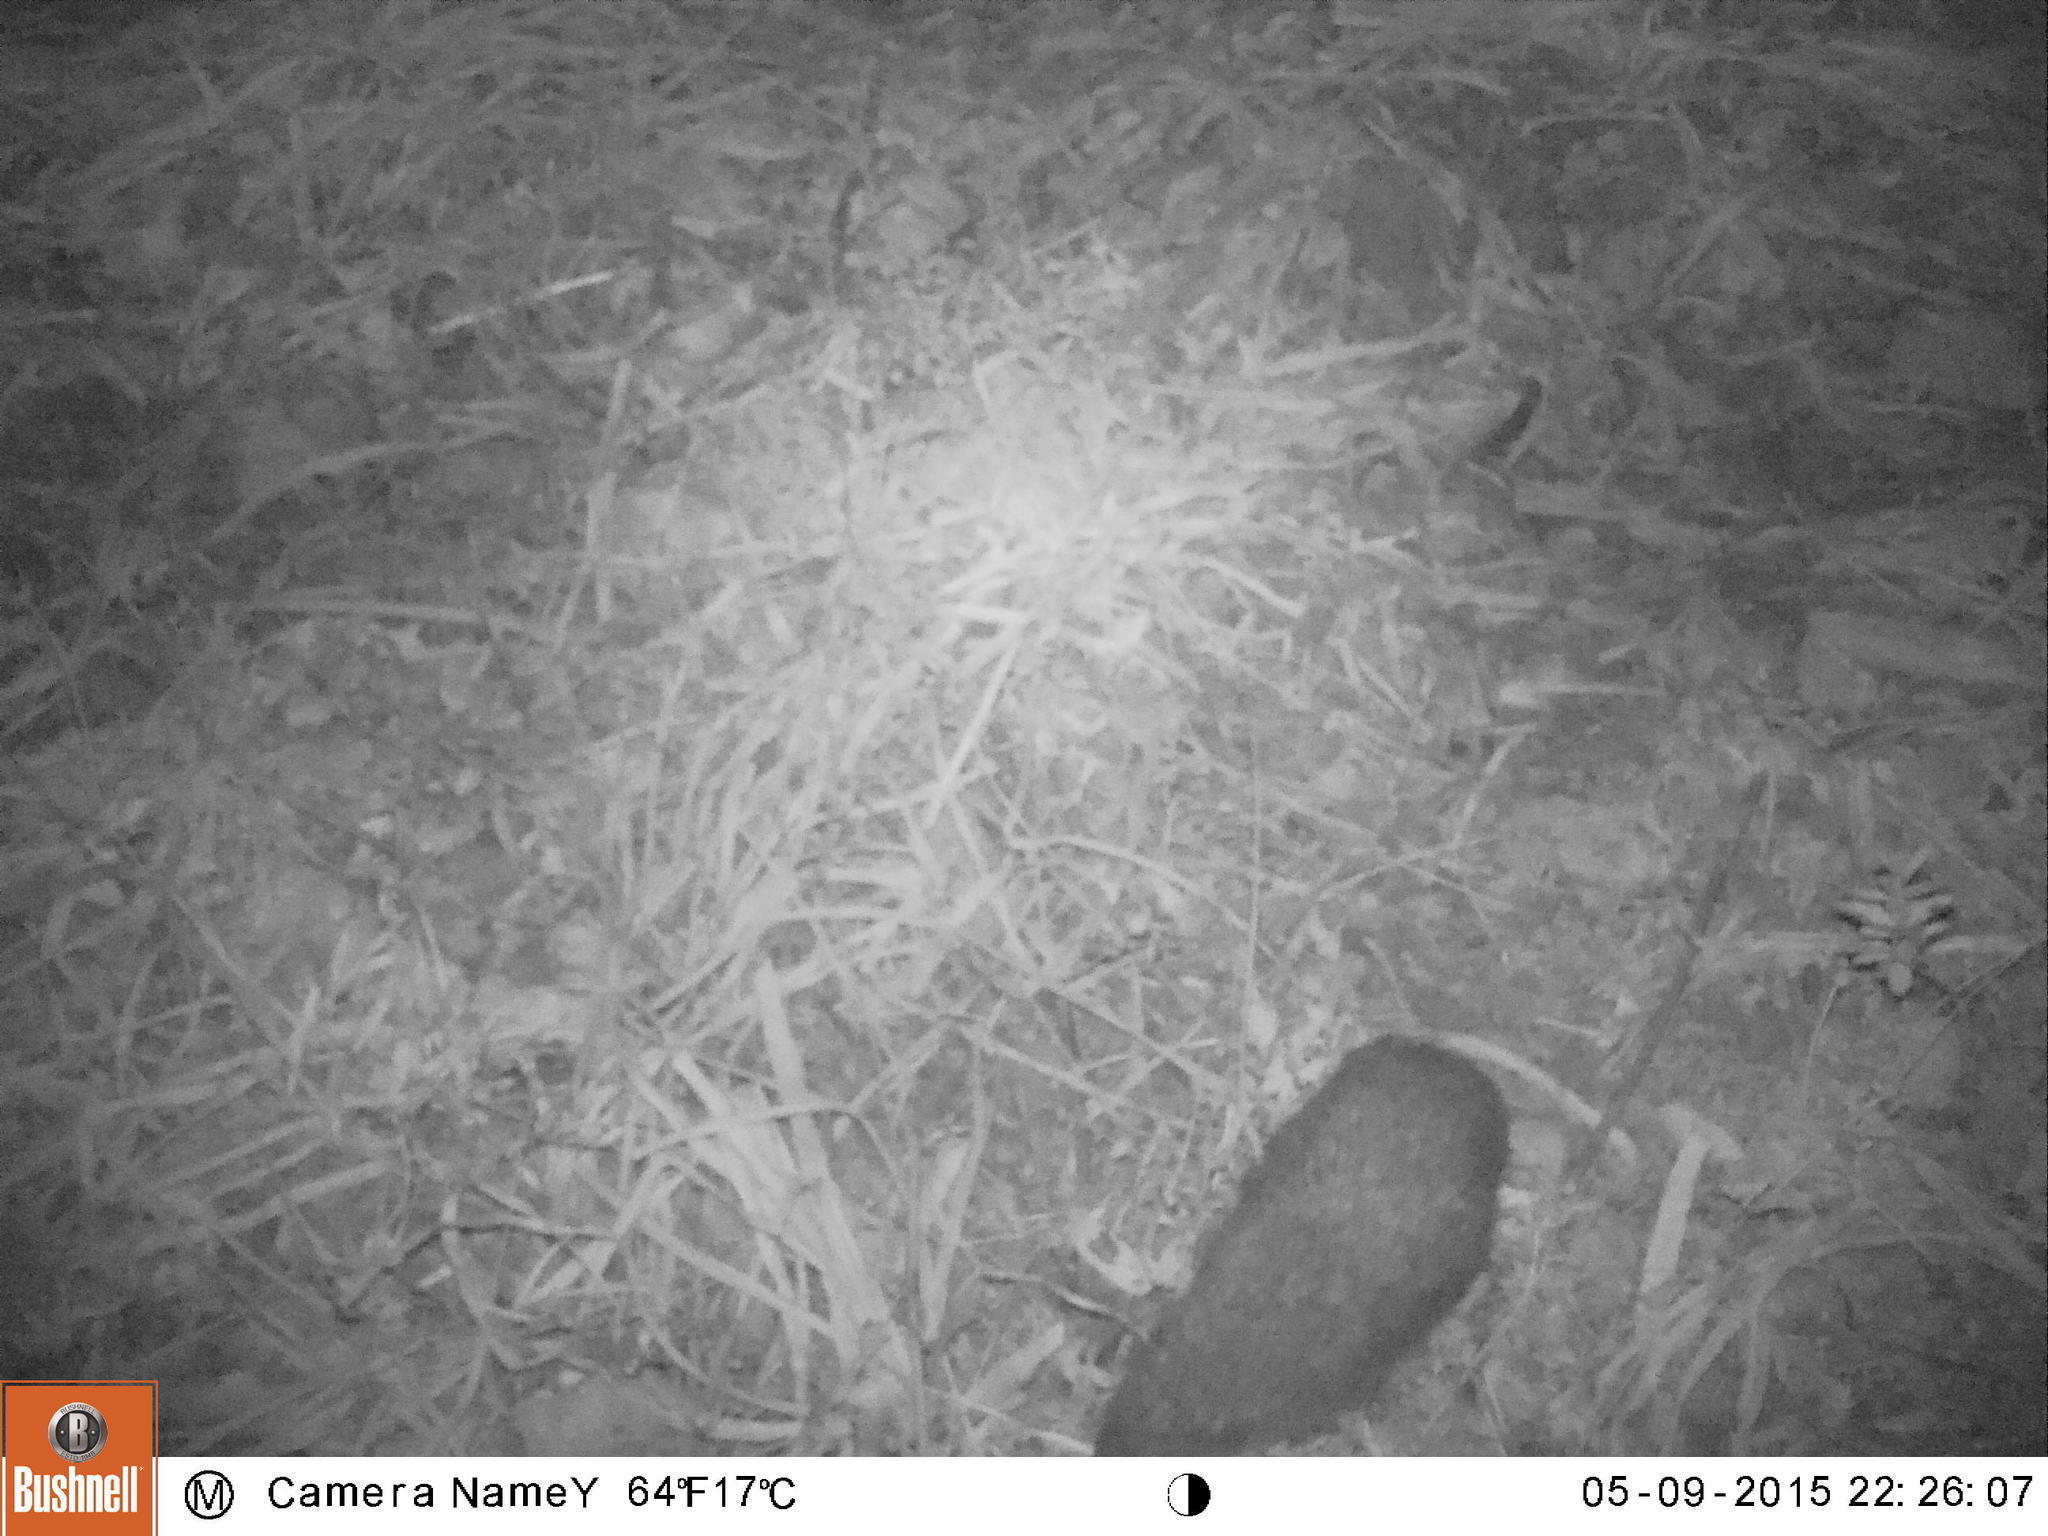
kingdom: Animalia
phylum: Chordata
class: Mammalia
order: Erinaceomorpha
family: Erinaceidae
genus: Erinaceus
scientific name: Erinaceus concolor
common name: Southern white-breasted hedgehog
